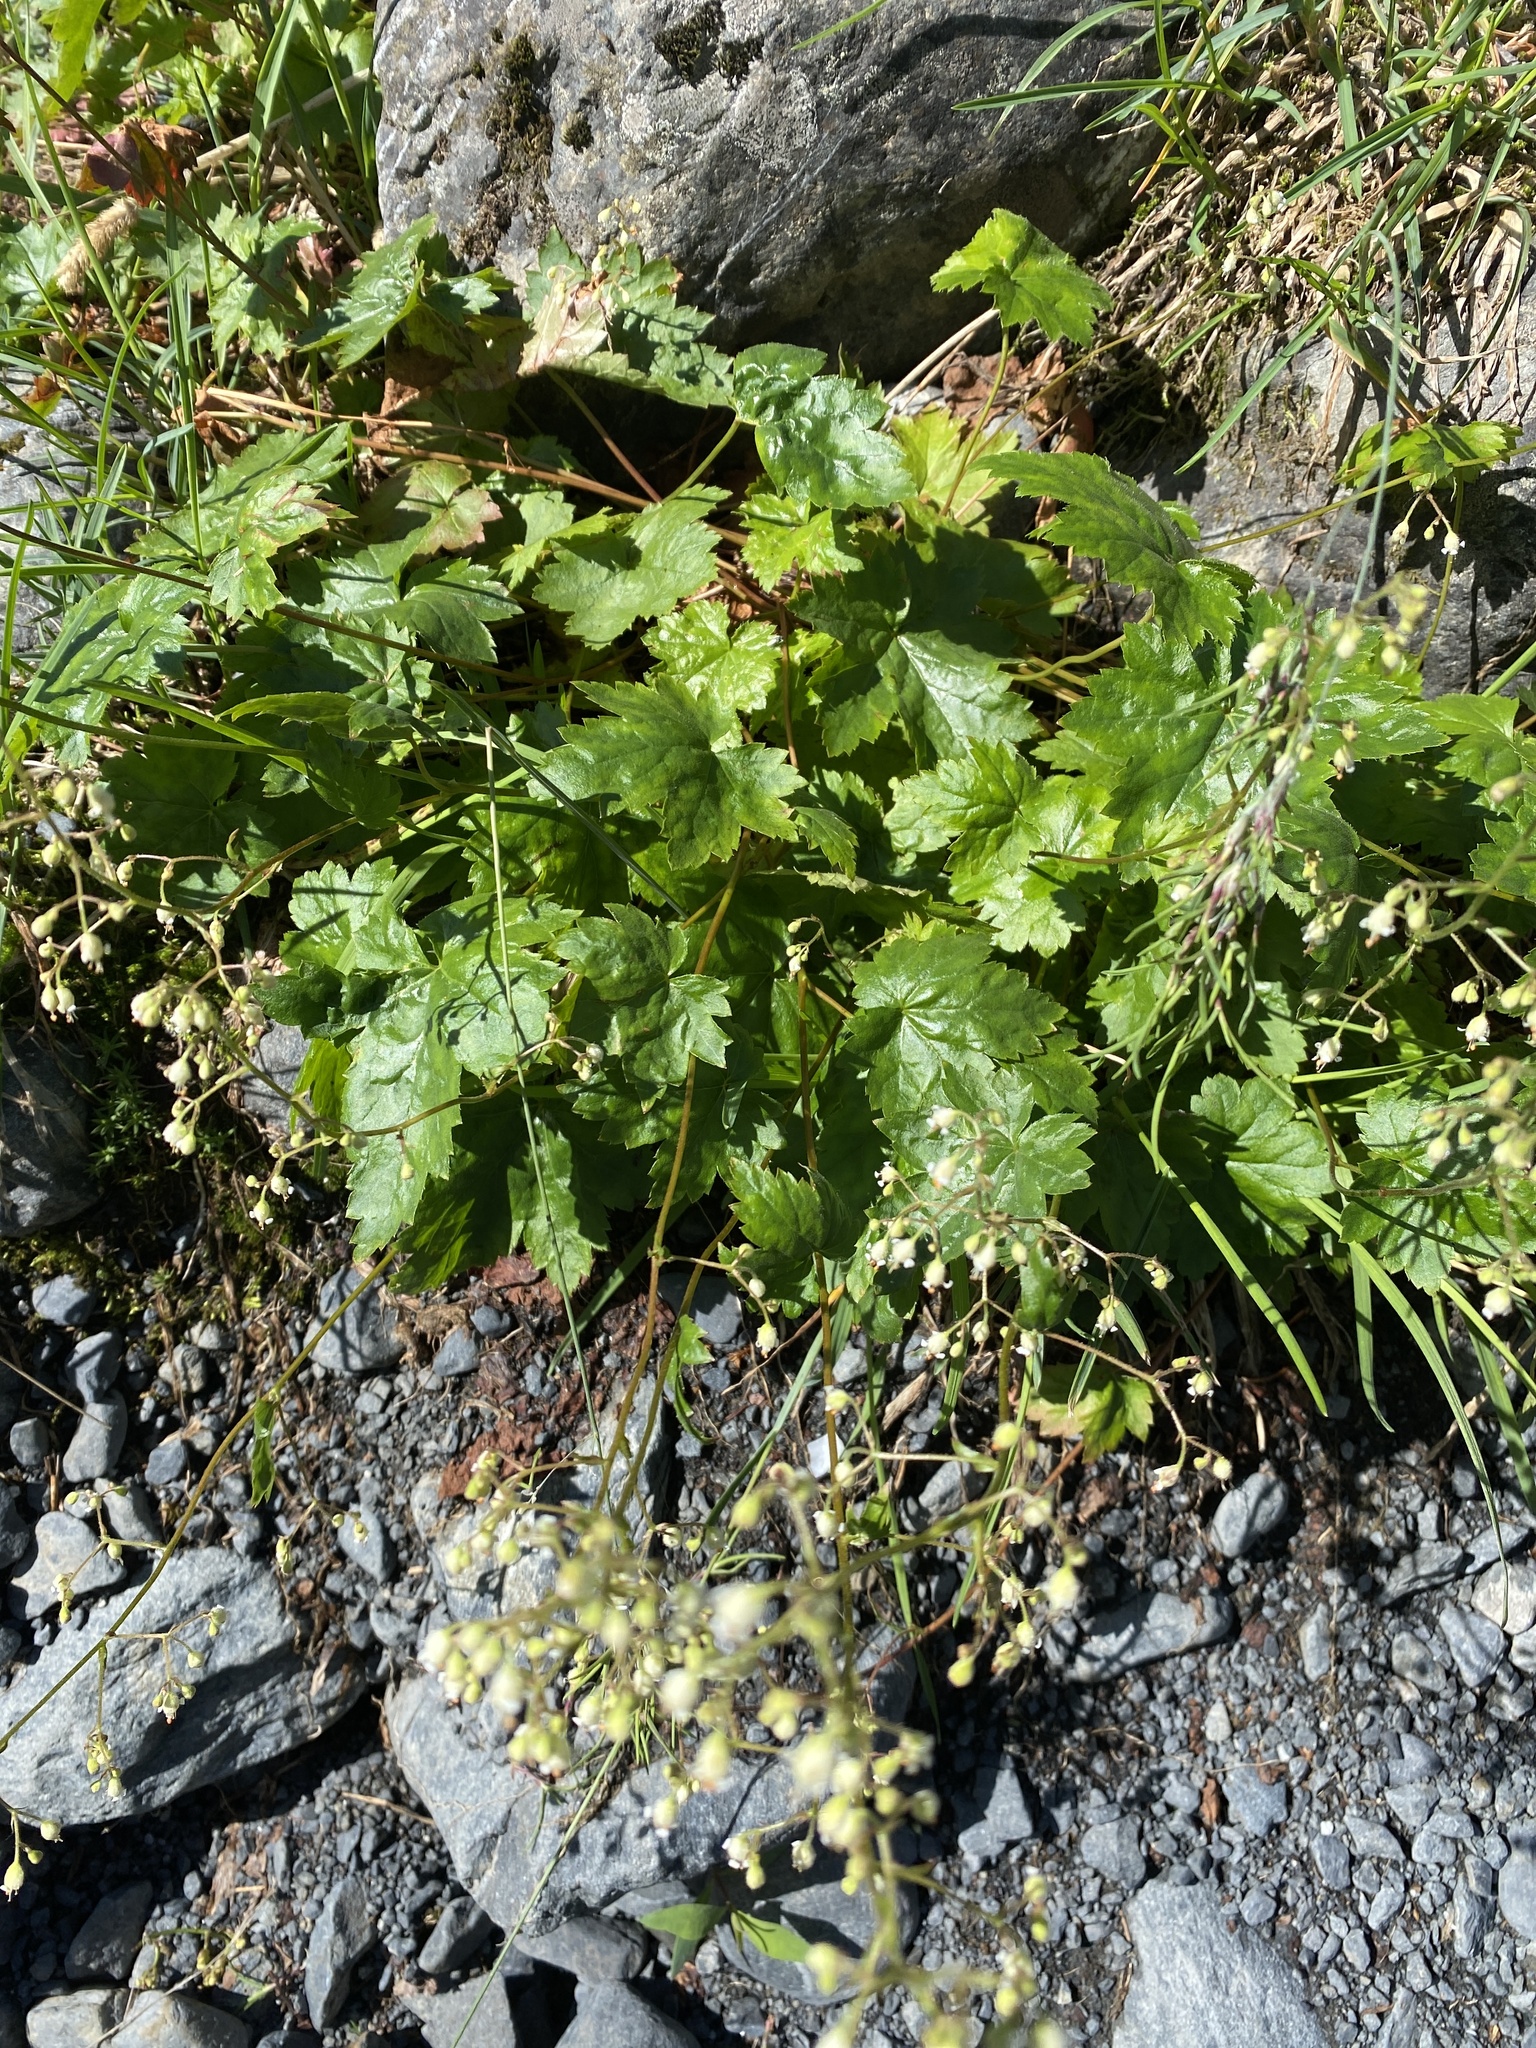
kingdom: Plantae
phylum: Tracheophyta
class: Magnoliopsida
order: Saxifragales
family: Saxifragaceae
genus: Heuchera
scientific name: Heuchera glabra
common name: Alpine alumroot
